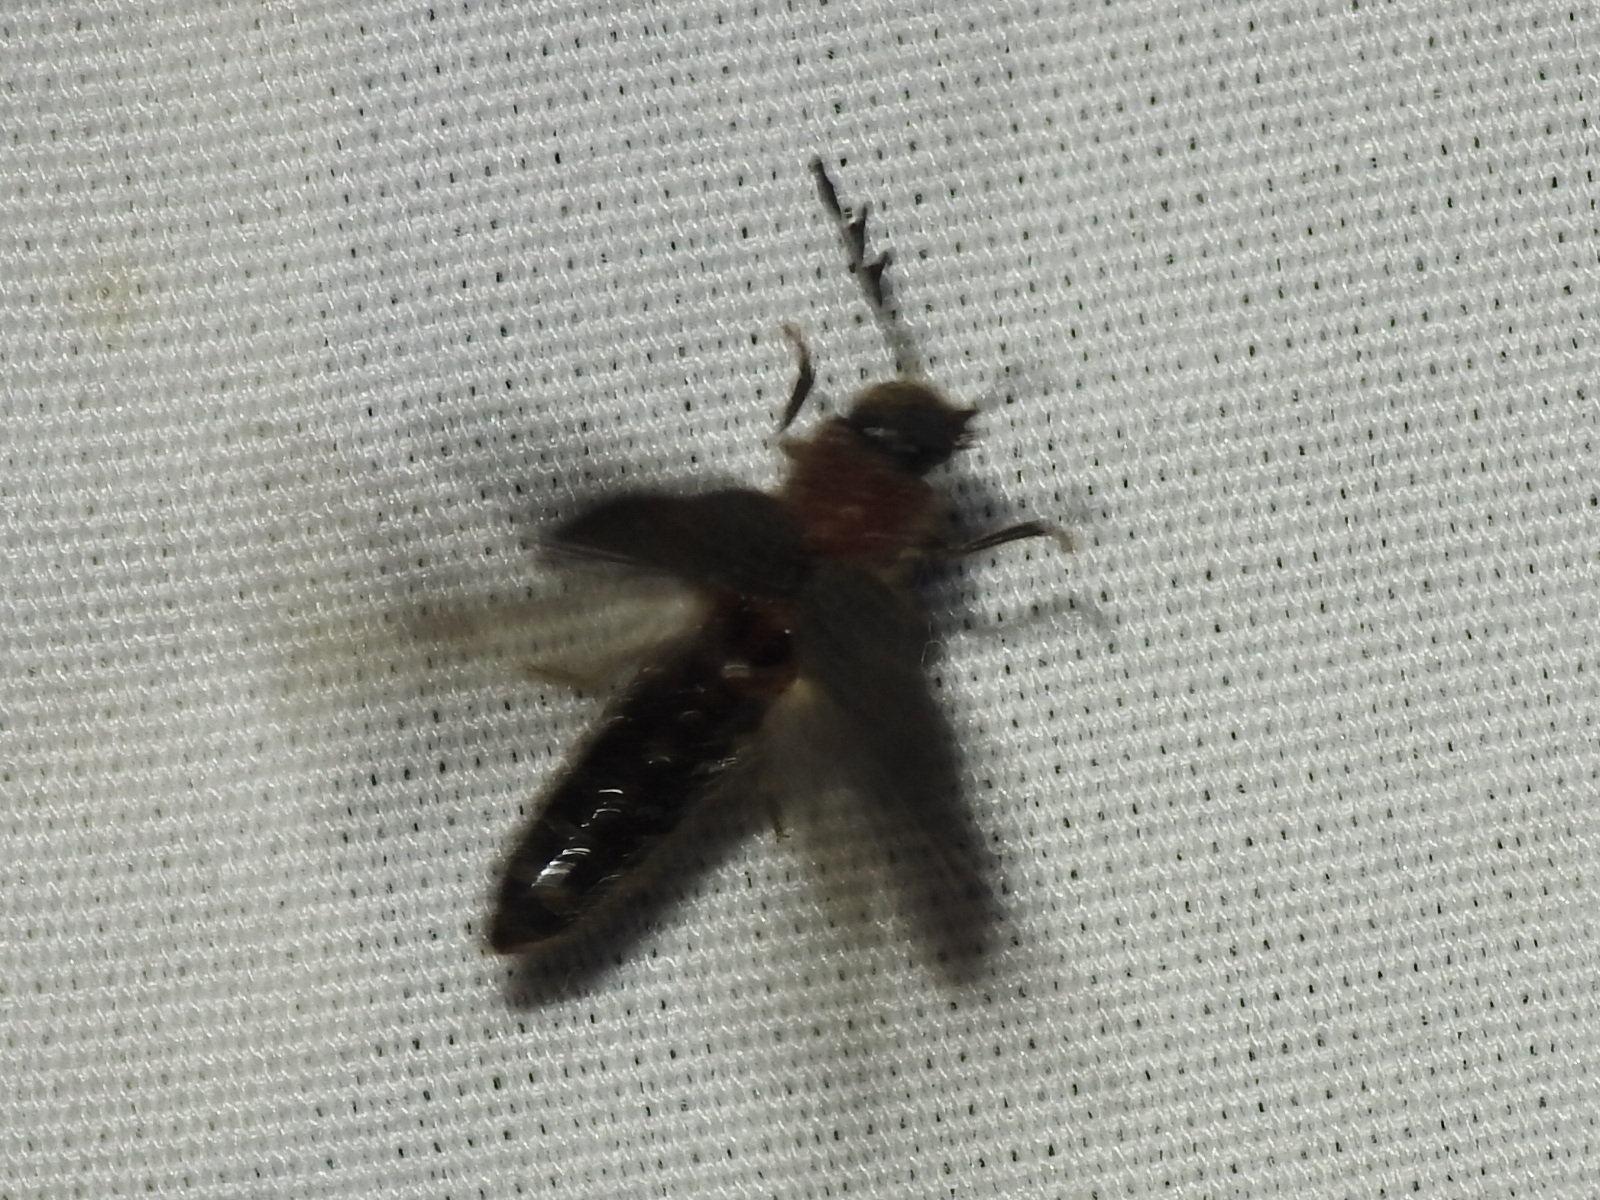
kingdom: Animalia
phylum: Arthropoda
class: Insecta
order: Coleoptera
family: Cleridae
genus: Neorthopleura
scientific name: Neorthopleura texana
